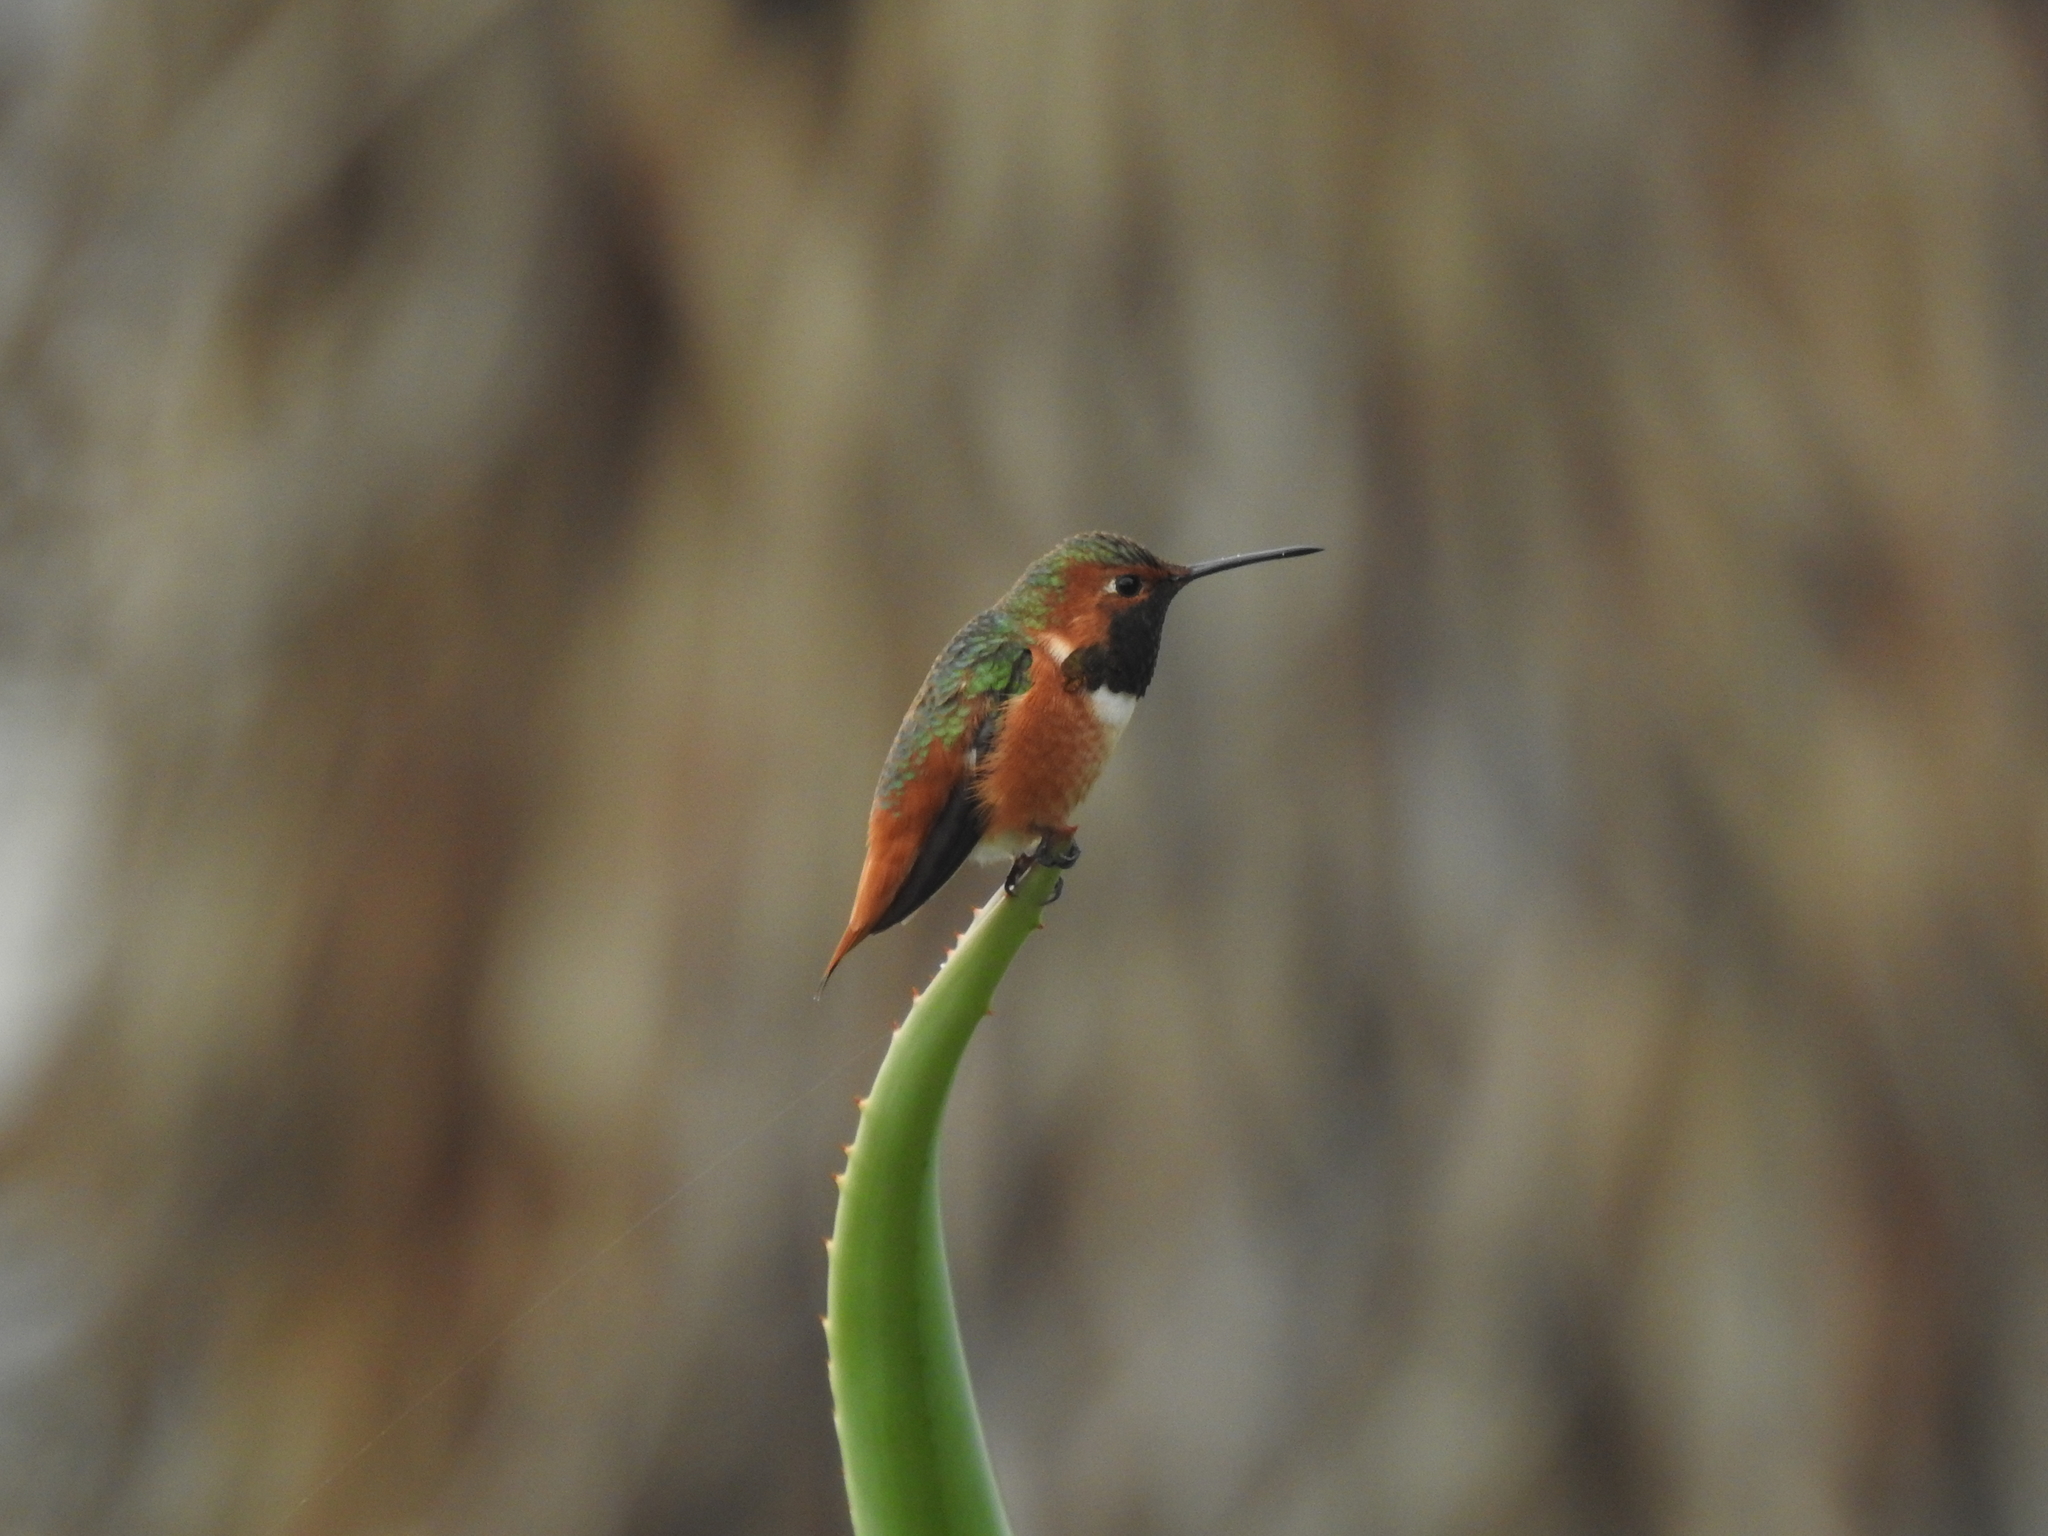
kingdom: Animalia
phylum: Chordata
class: Aves
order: Apodiformes
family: Trochilidae
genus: Selasphorus
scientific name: Selasphorus sasin
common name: Allen's hummingbird
